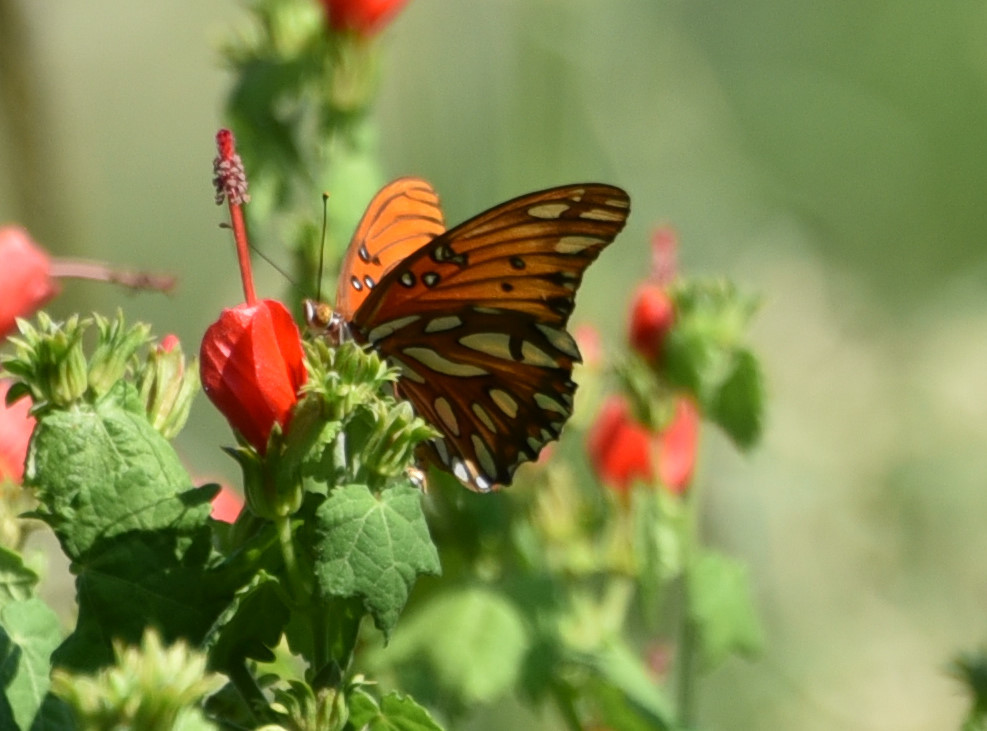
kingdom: Animalia
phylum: Arthropoda
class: Insecta
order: Lepidoptera
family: Nymphalidae
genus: Dione
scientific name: Dione vanillae
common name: Gulf fritillary
